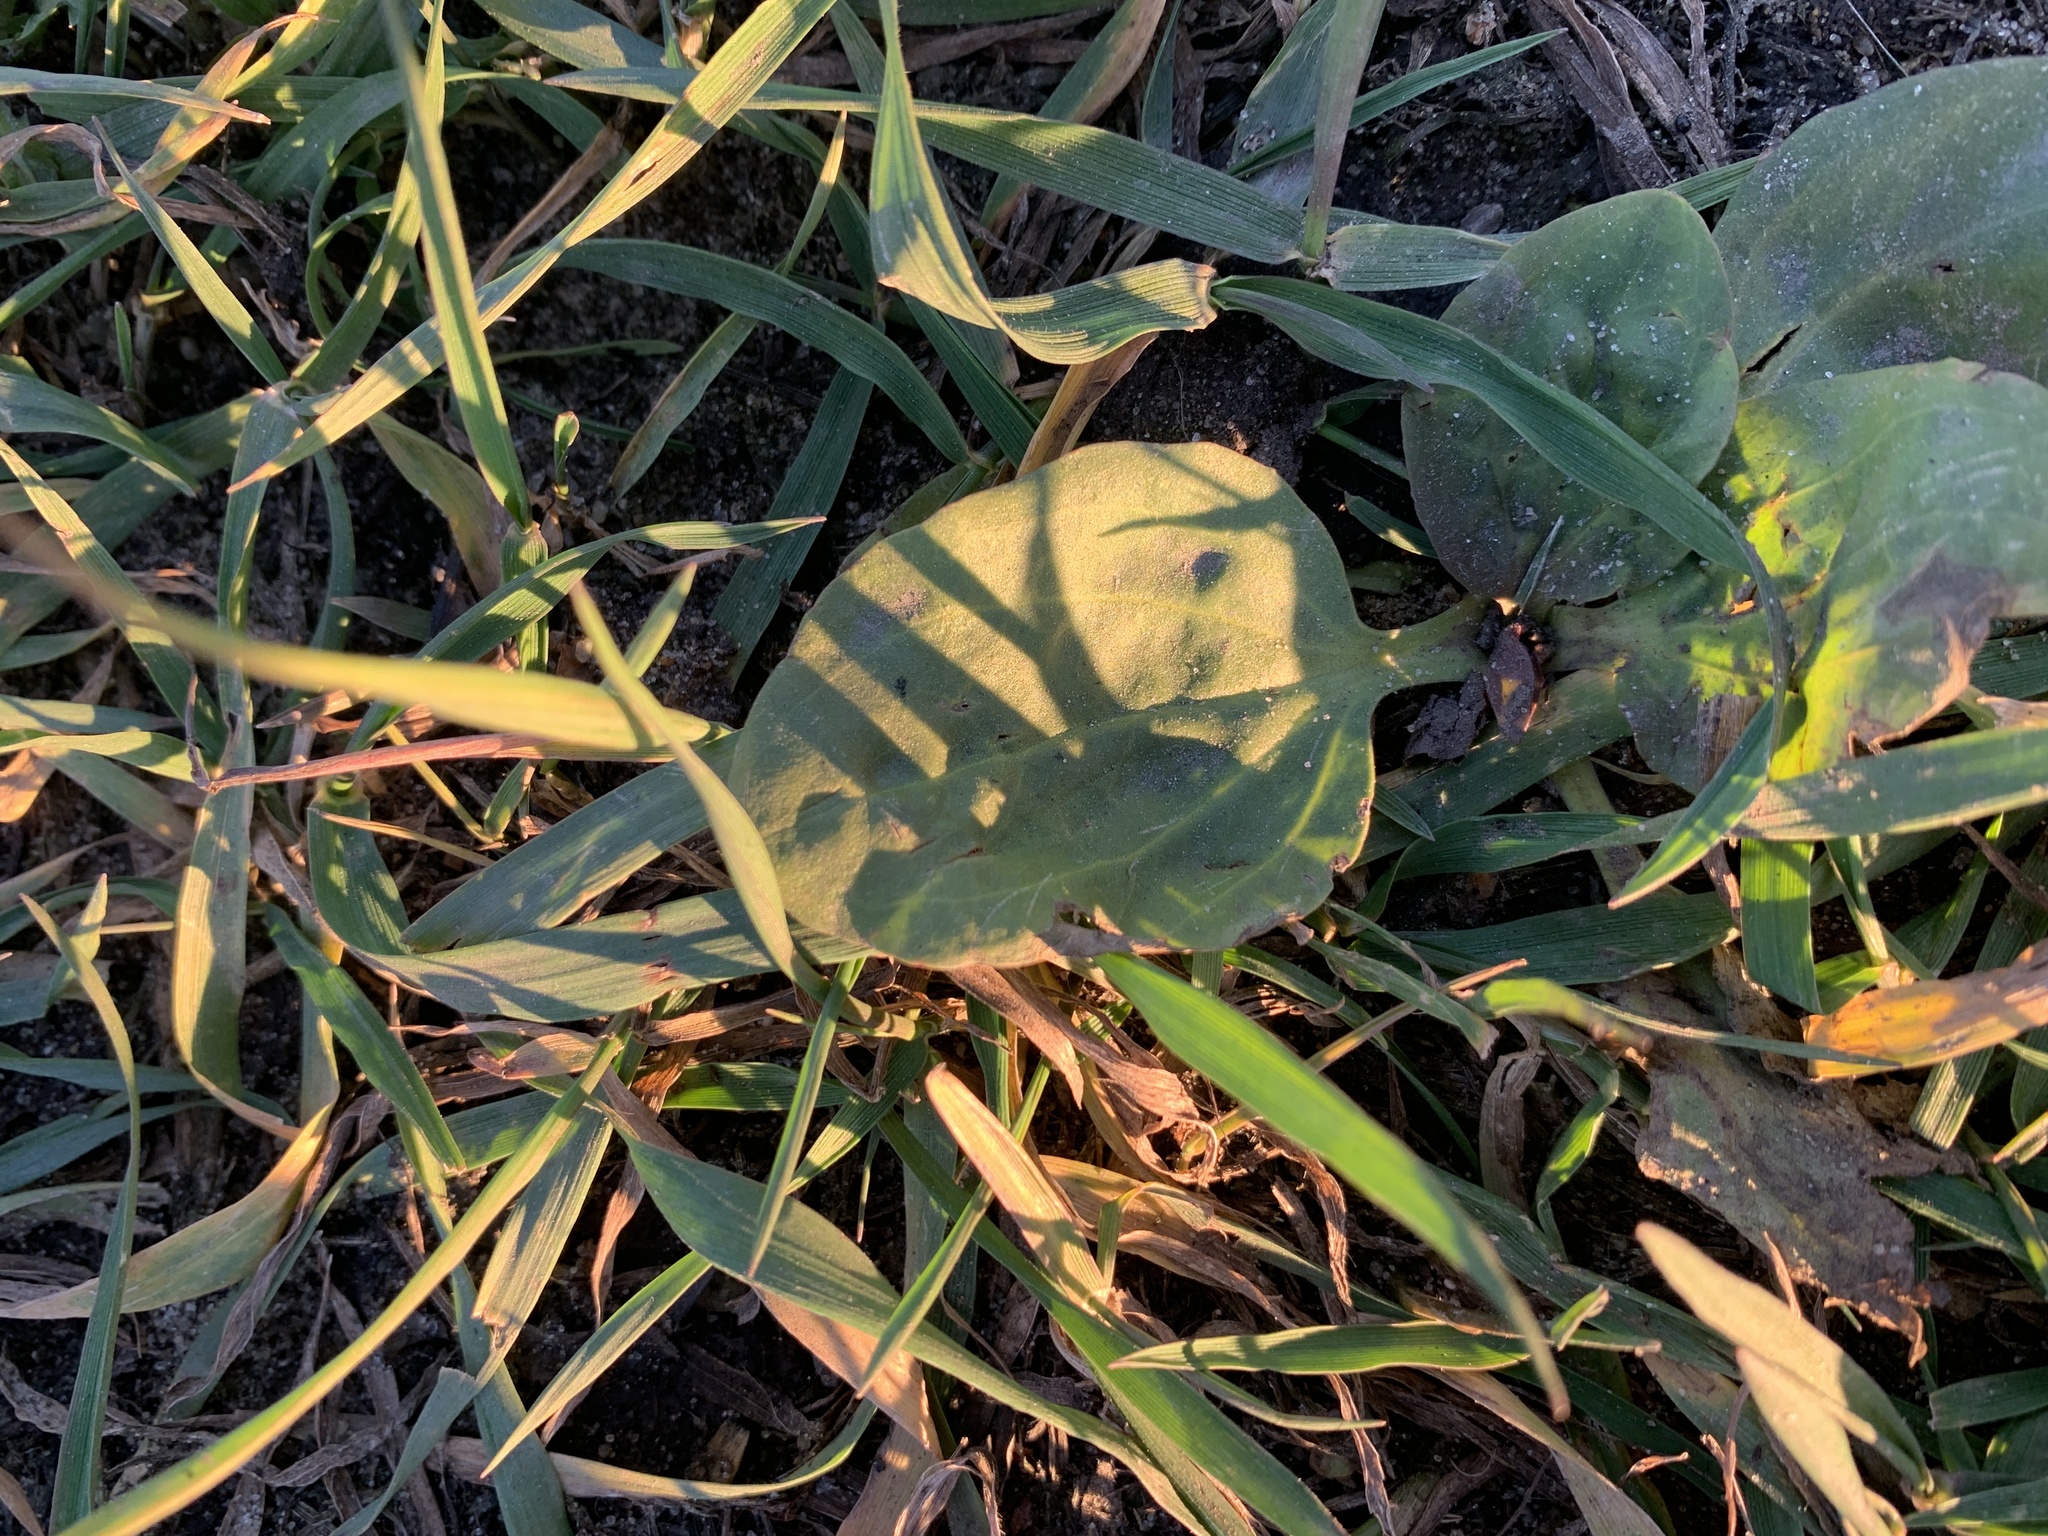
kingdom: Plantae
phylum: Tracheophyta
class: Magnoliopsida
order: Lamiales
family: Plantaginaceae
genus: Plantago
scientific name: Plantago major
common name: Common plantain
